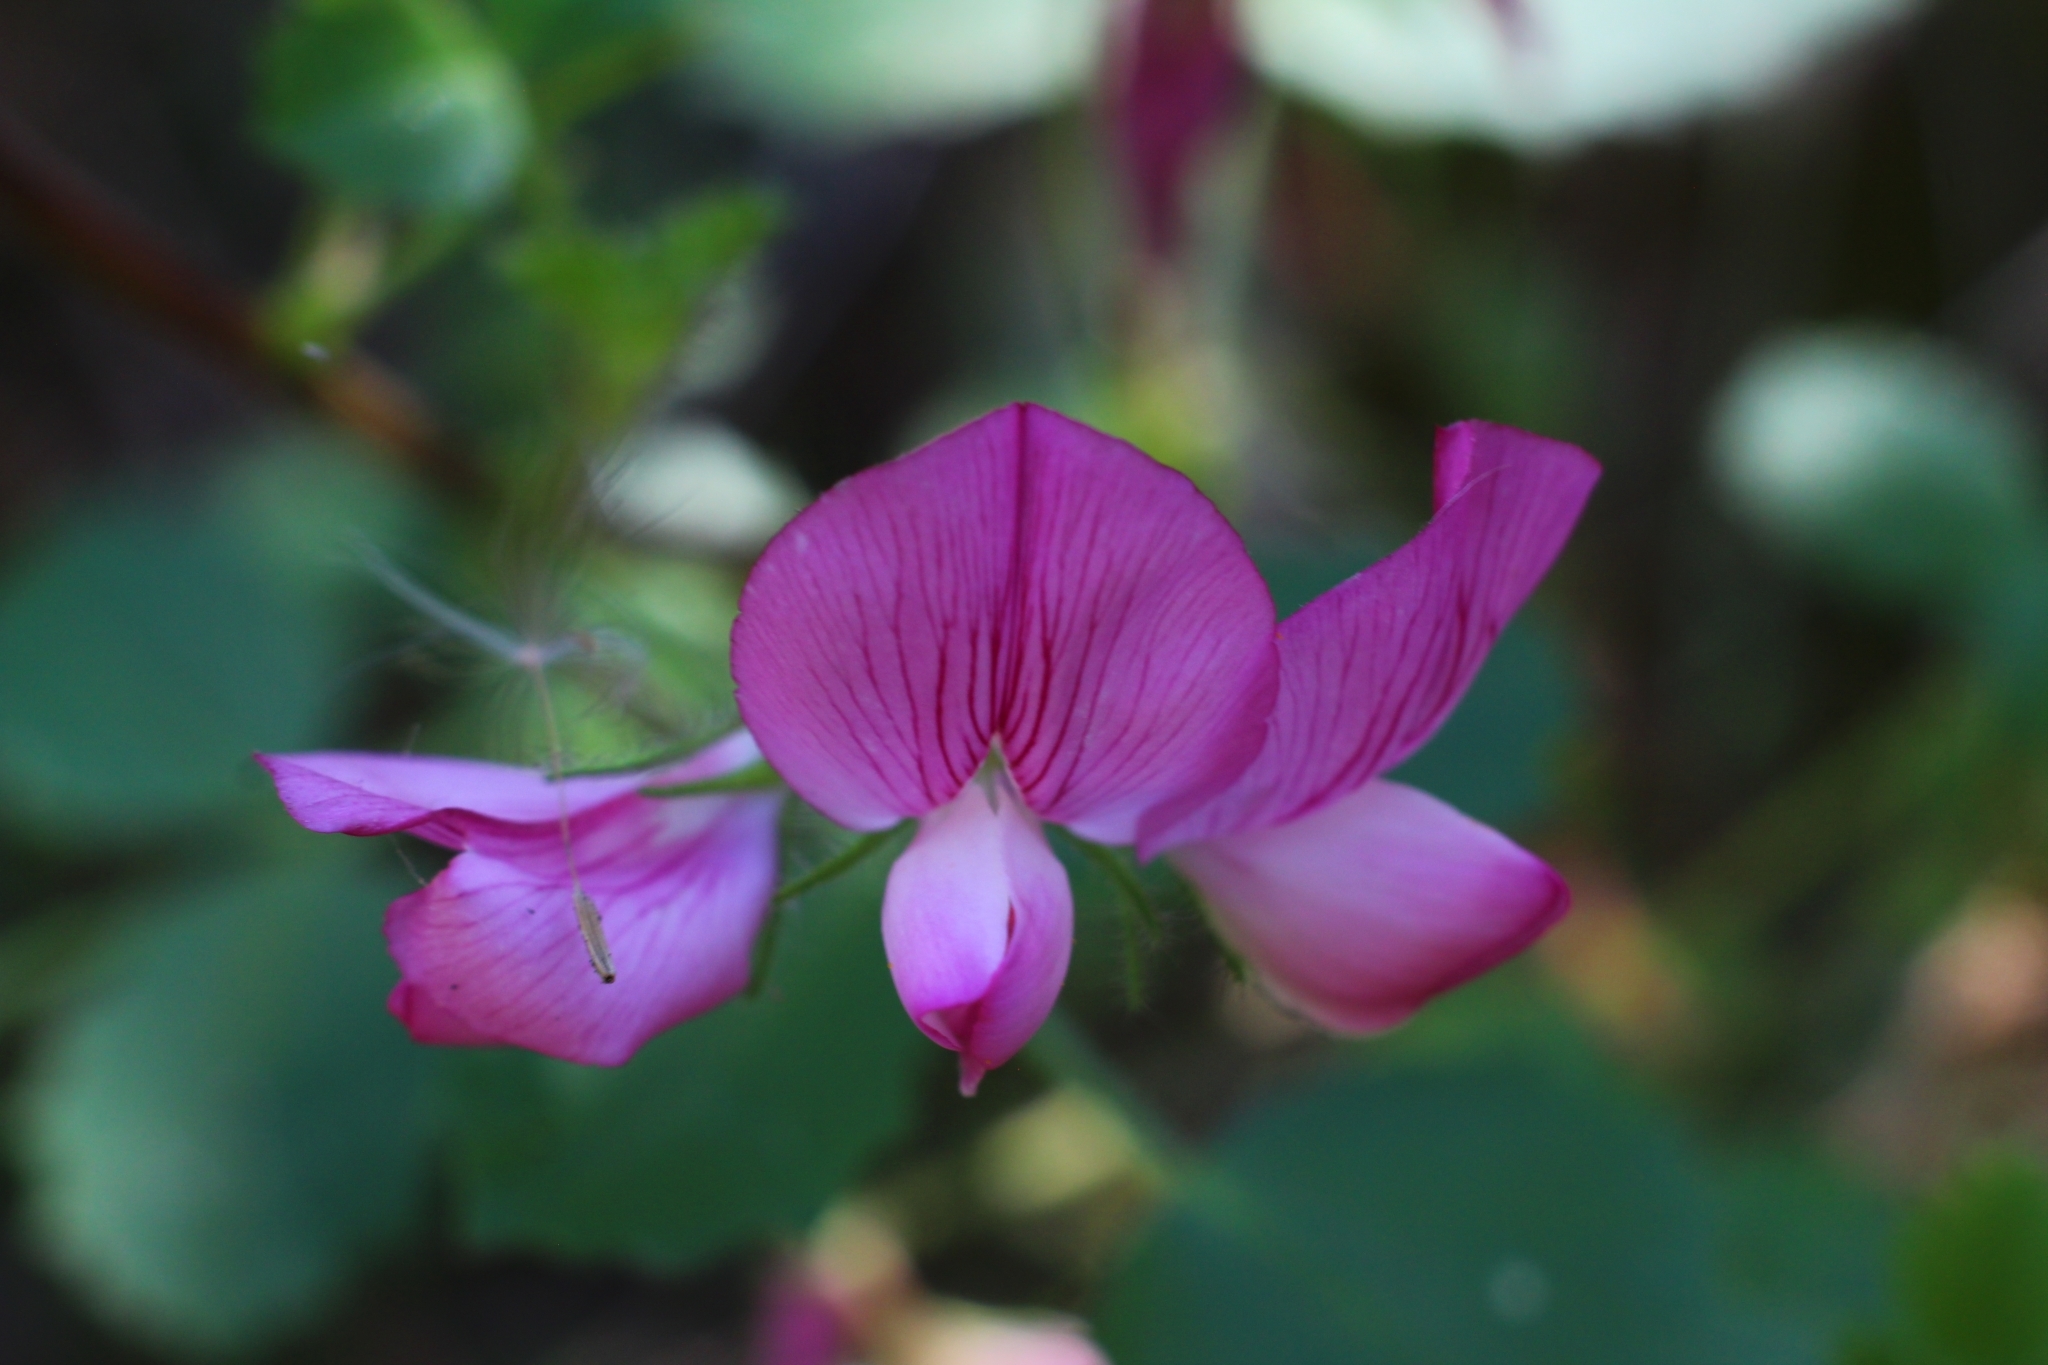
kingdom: Plantae
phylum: Tracheophyta
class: Magnoliopsida
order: Fabales
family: Fabaceae
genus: Ononis
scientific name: Ononis rotundifolia
